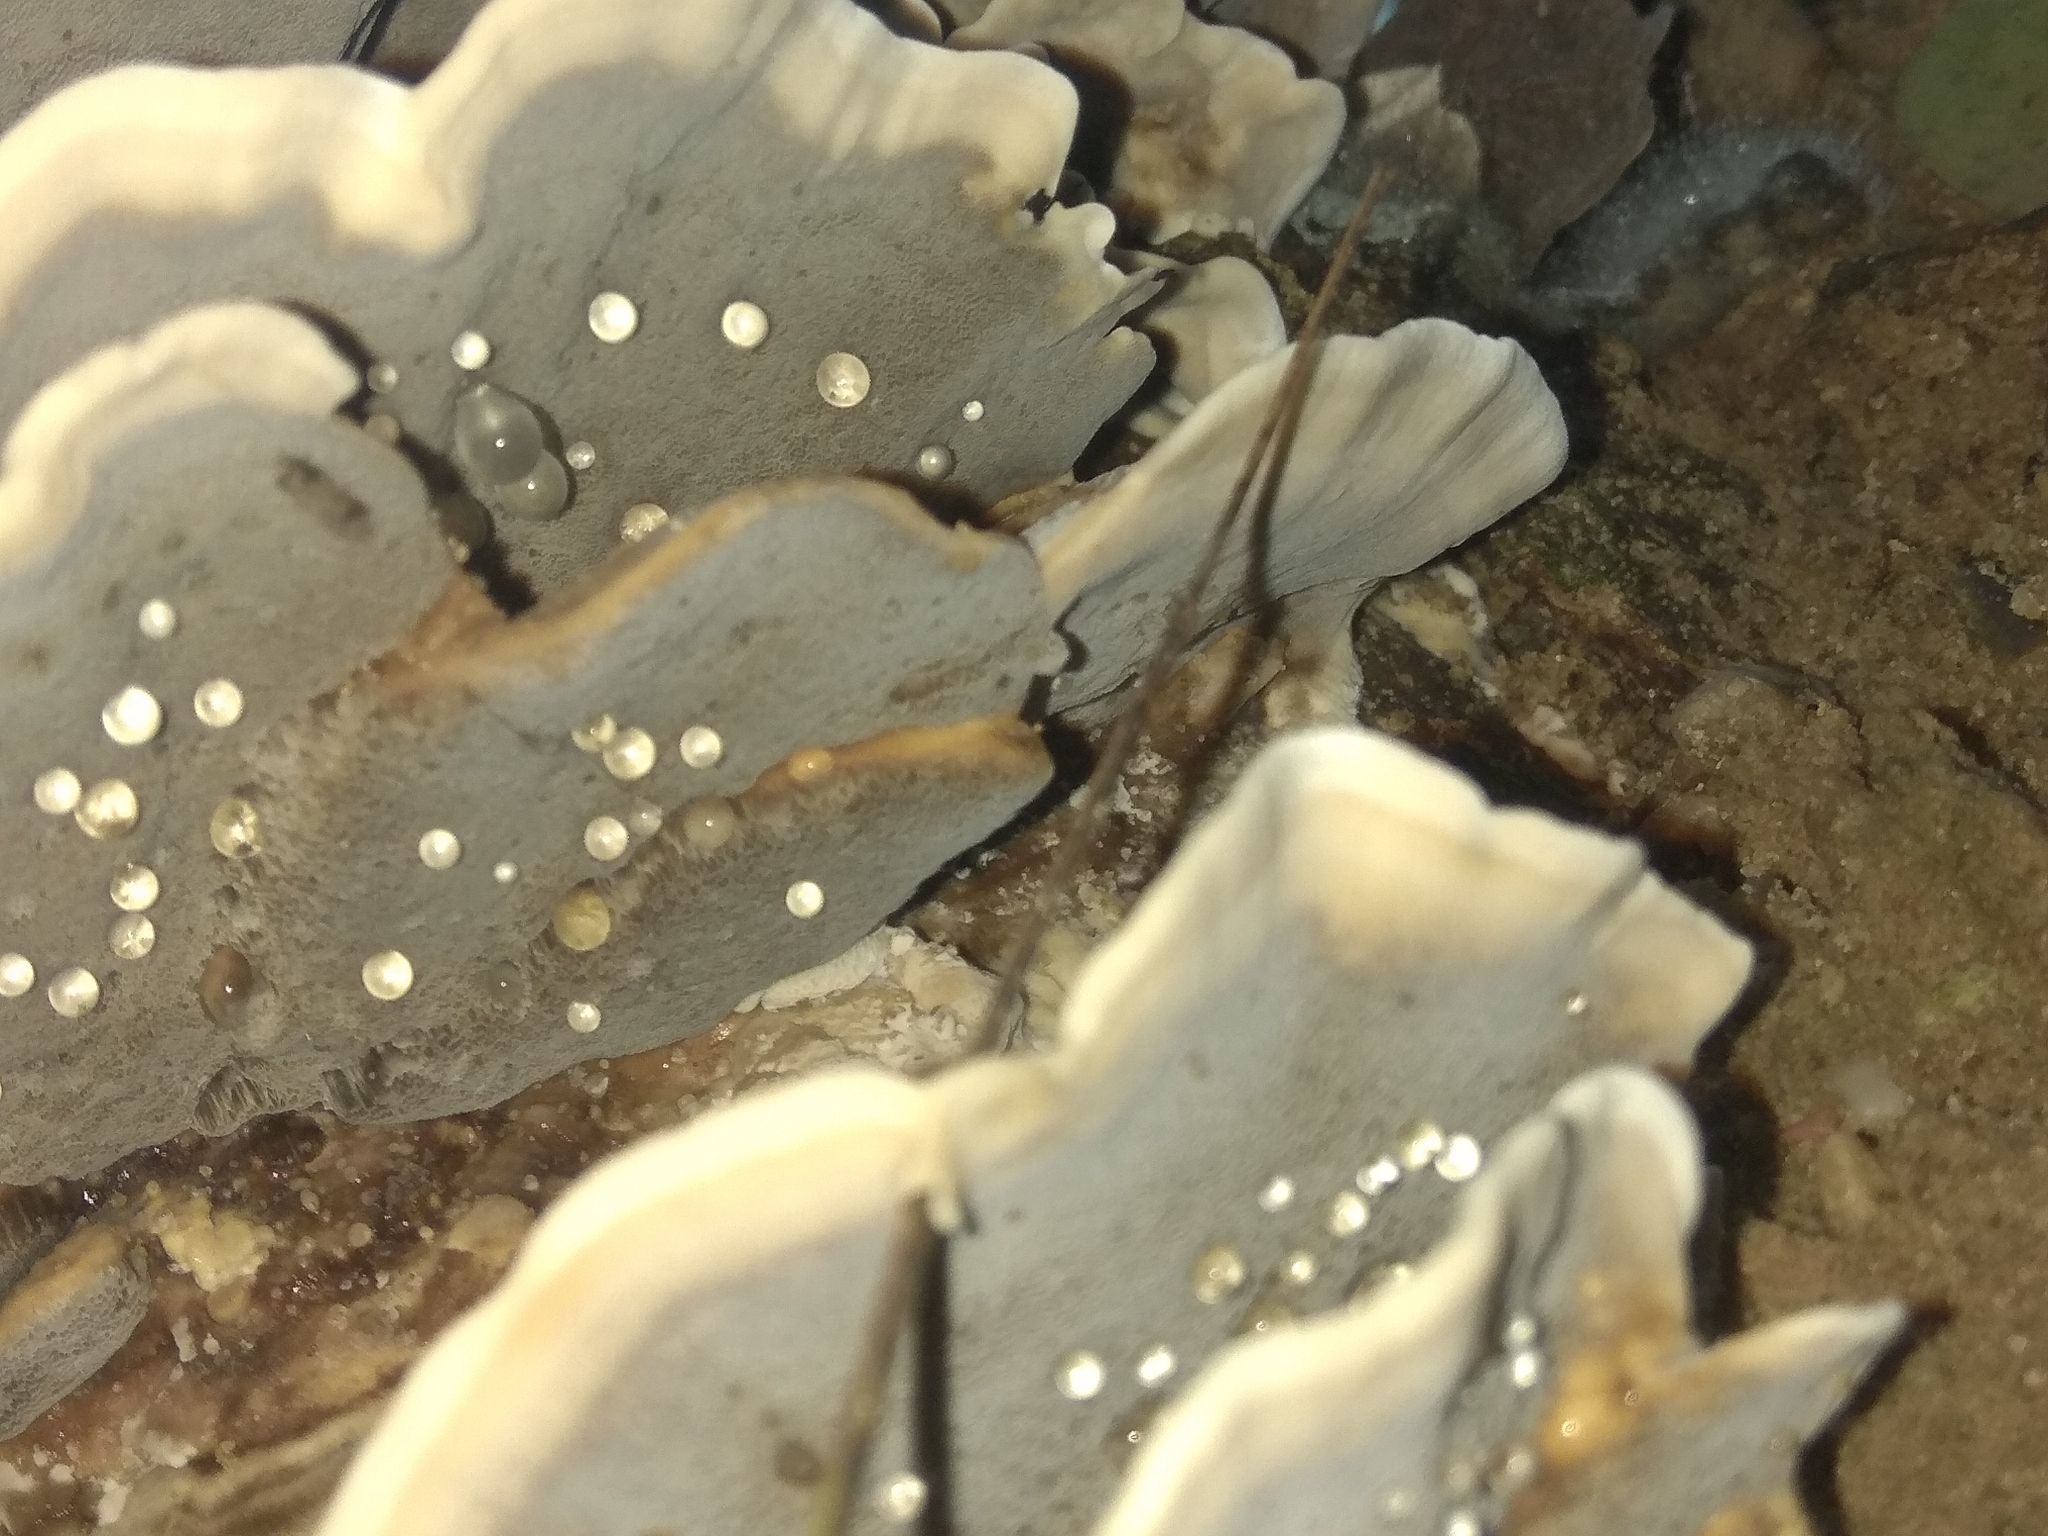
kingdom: Fungi
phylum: Basidiomycota
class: Agaricomycetes
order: Polyporales
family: Phanerochaetaceae
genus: Bjerkandera
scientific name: Bjerkandera adusta
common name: Smoky bracket
